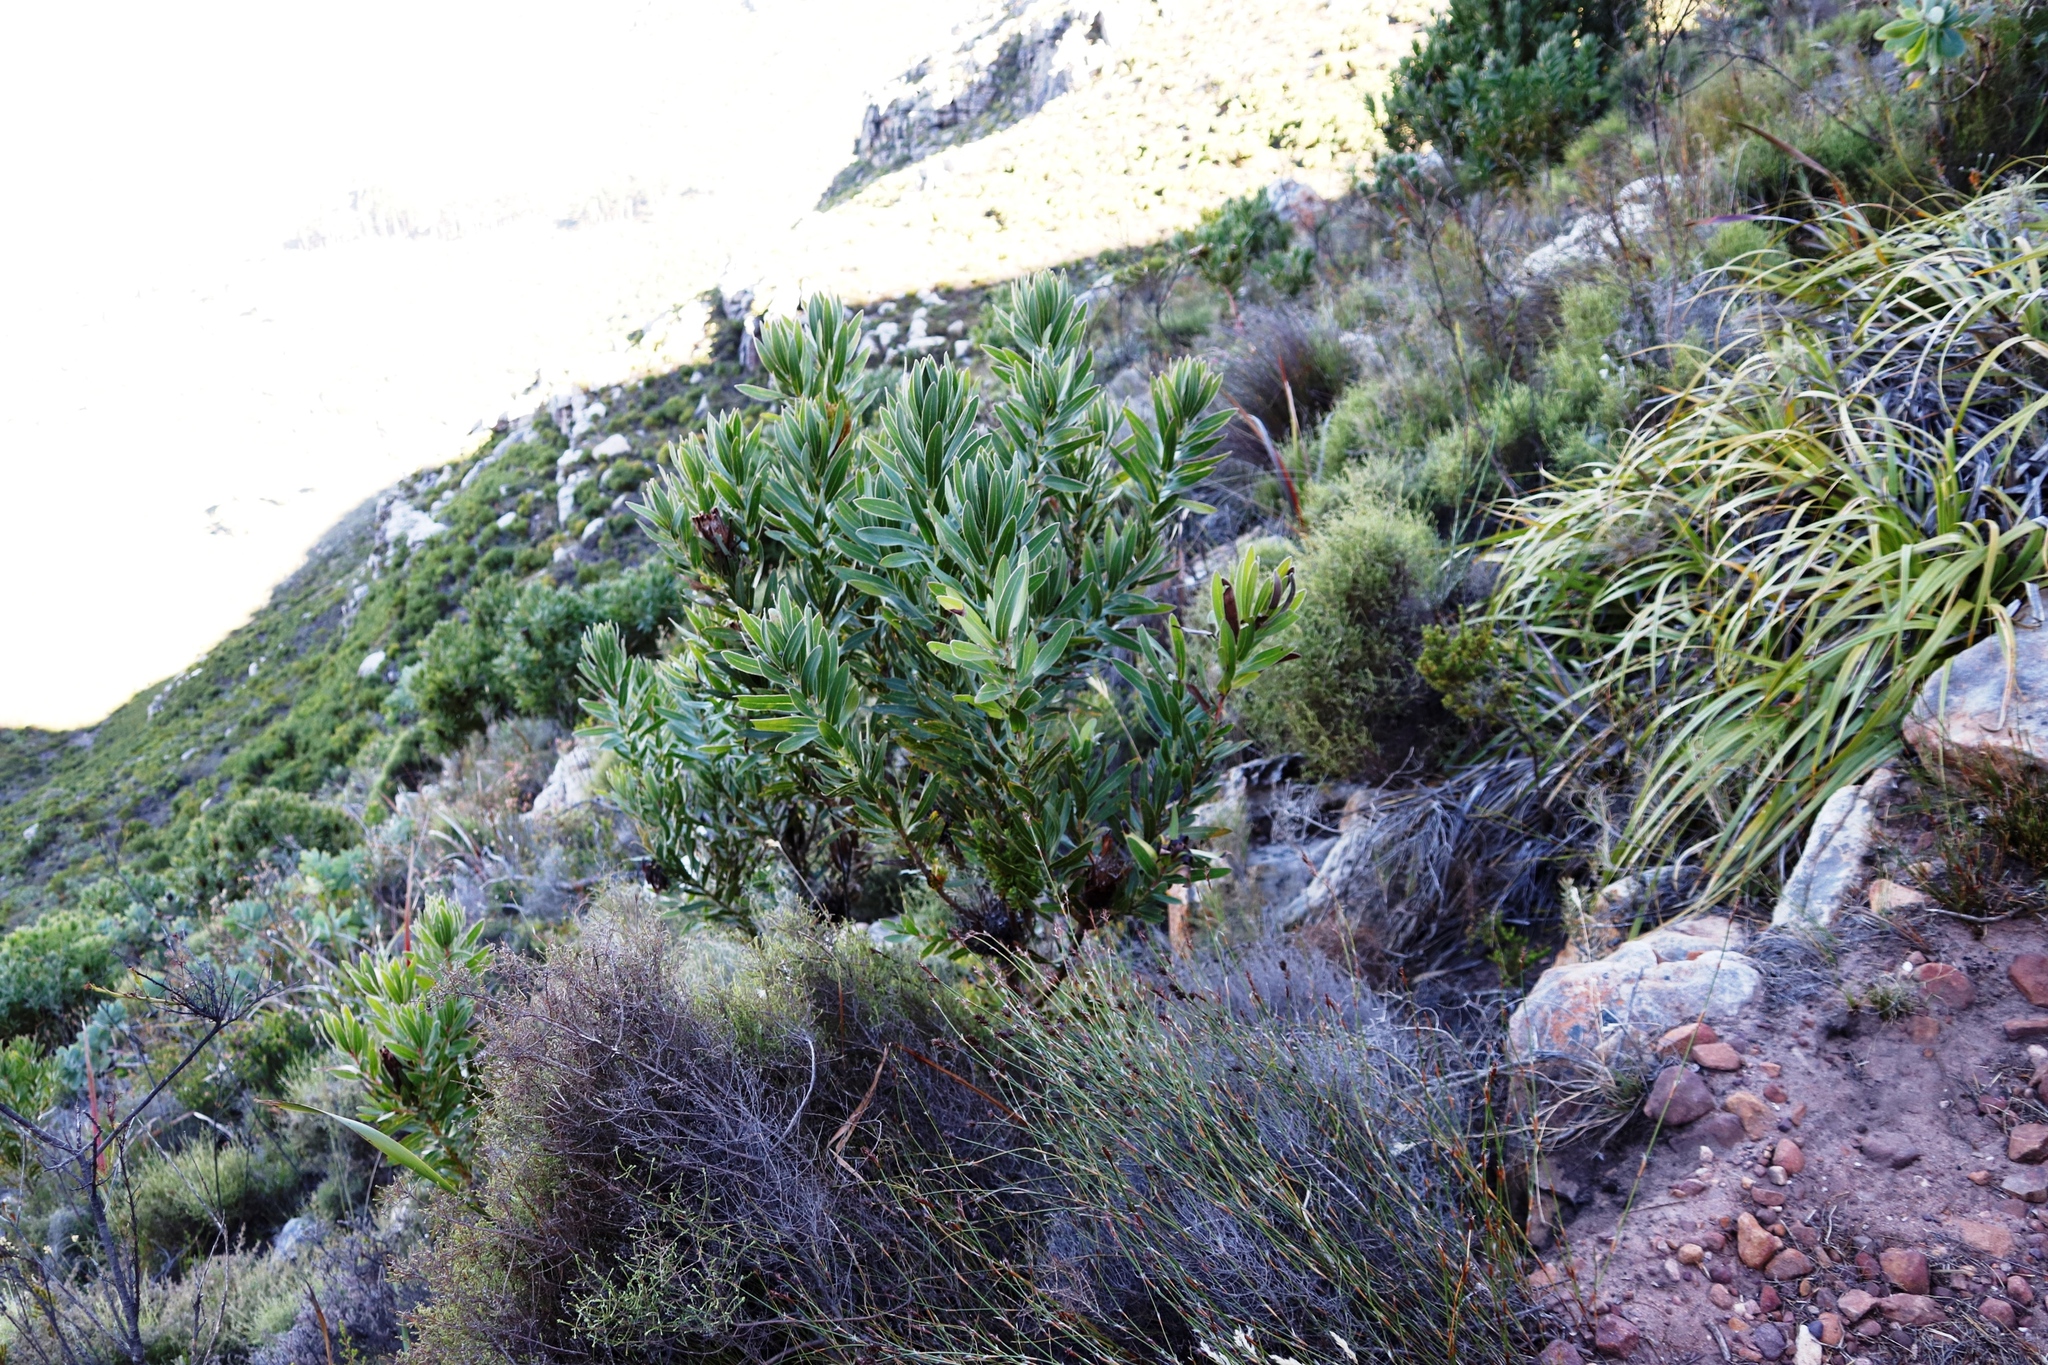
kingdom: Plantae
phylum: Tracheophyta
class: Magnoliopsida
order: Proteales
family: Proteaceae
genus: Protea
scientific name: Protea lepidocarpodendron
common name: Black-bearded protea
